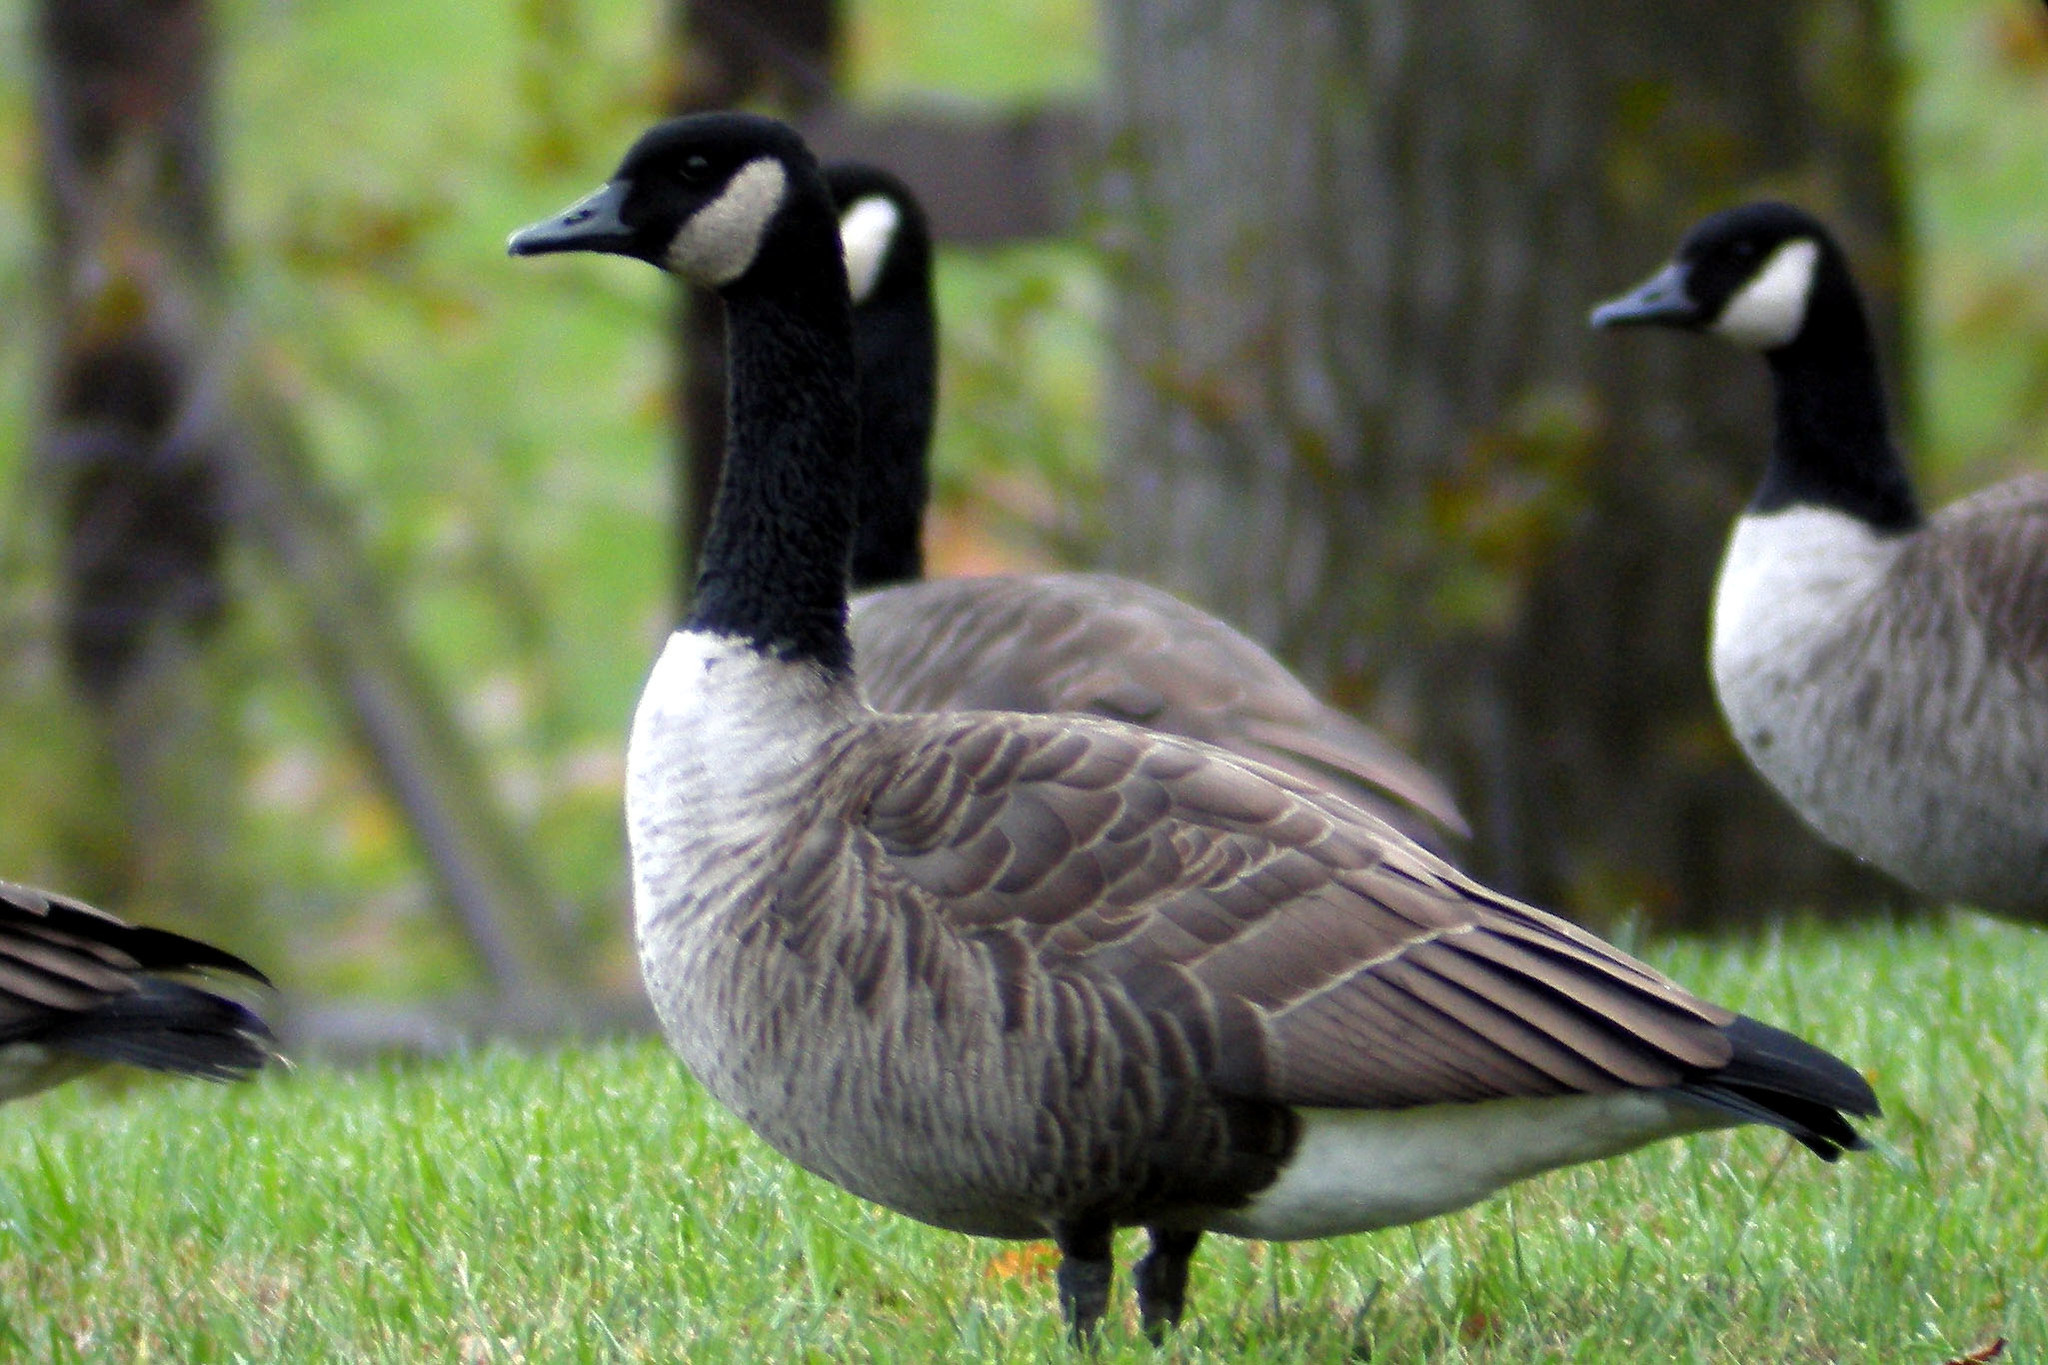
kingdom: Animalia
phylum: Chordata
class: Aves
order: Anseriformes
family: Anatidae
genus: Branta
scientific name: Branta canadensis
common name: Canada goose
